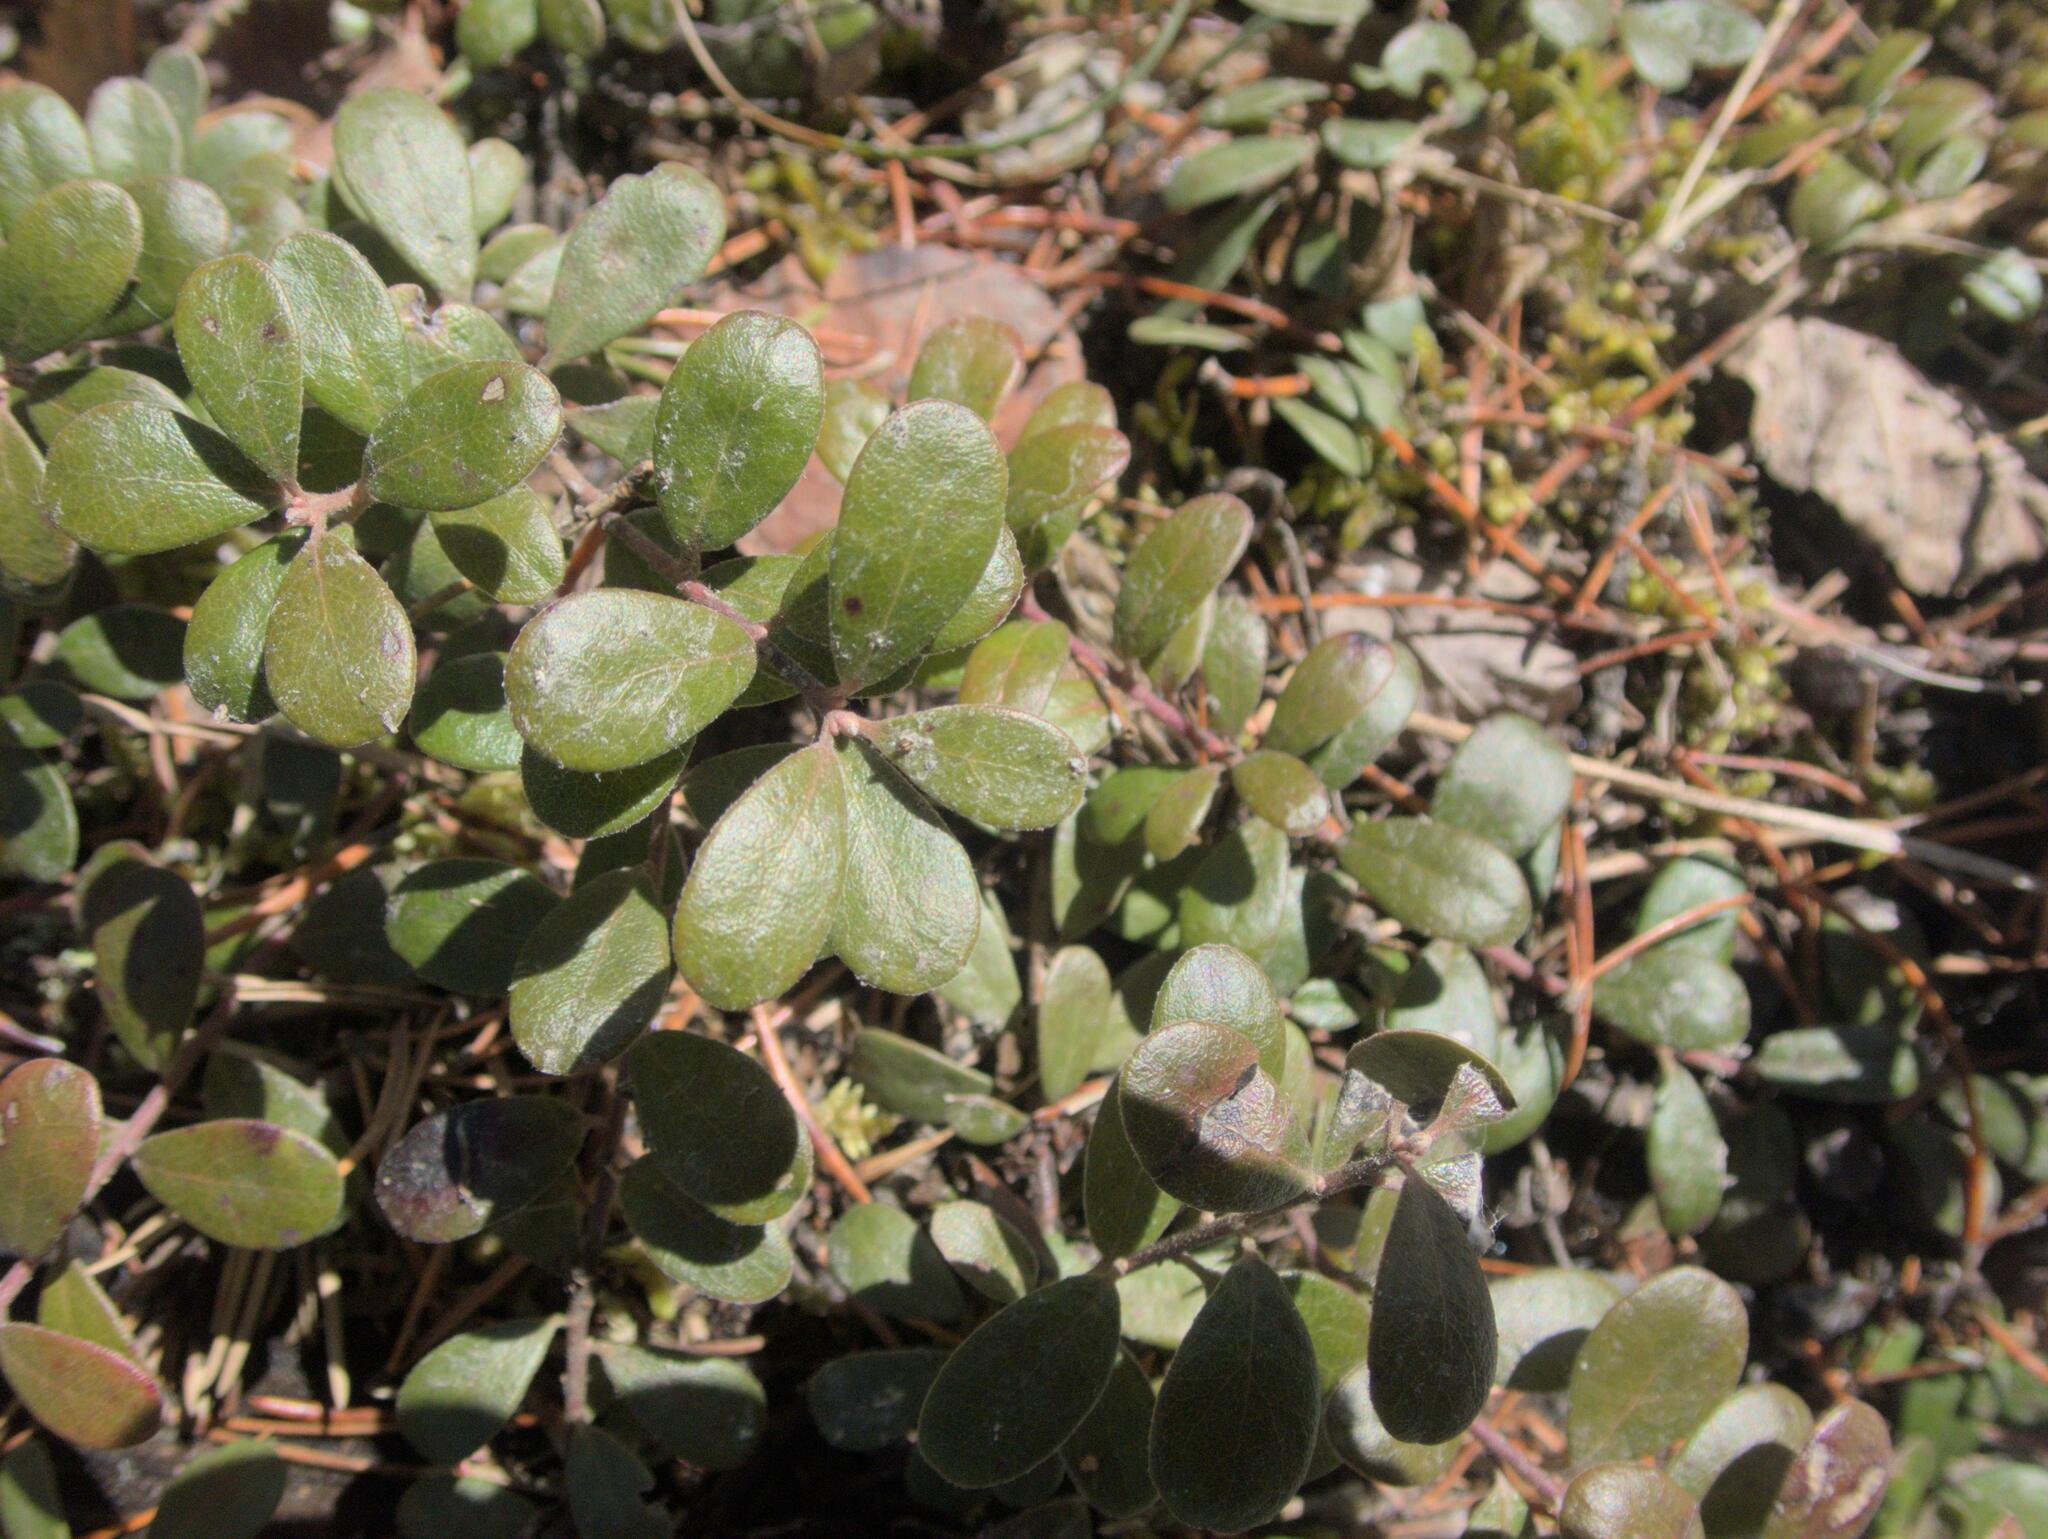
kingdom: Plantae
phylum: Tracheophyta
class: Magnoliopsida
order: Ericales
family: Ericaceae
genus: Arctostaphylos
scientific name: Arctostaphylos uva-ursi
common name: Bearberry
